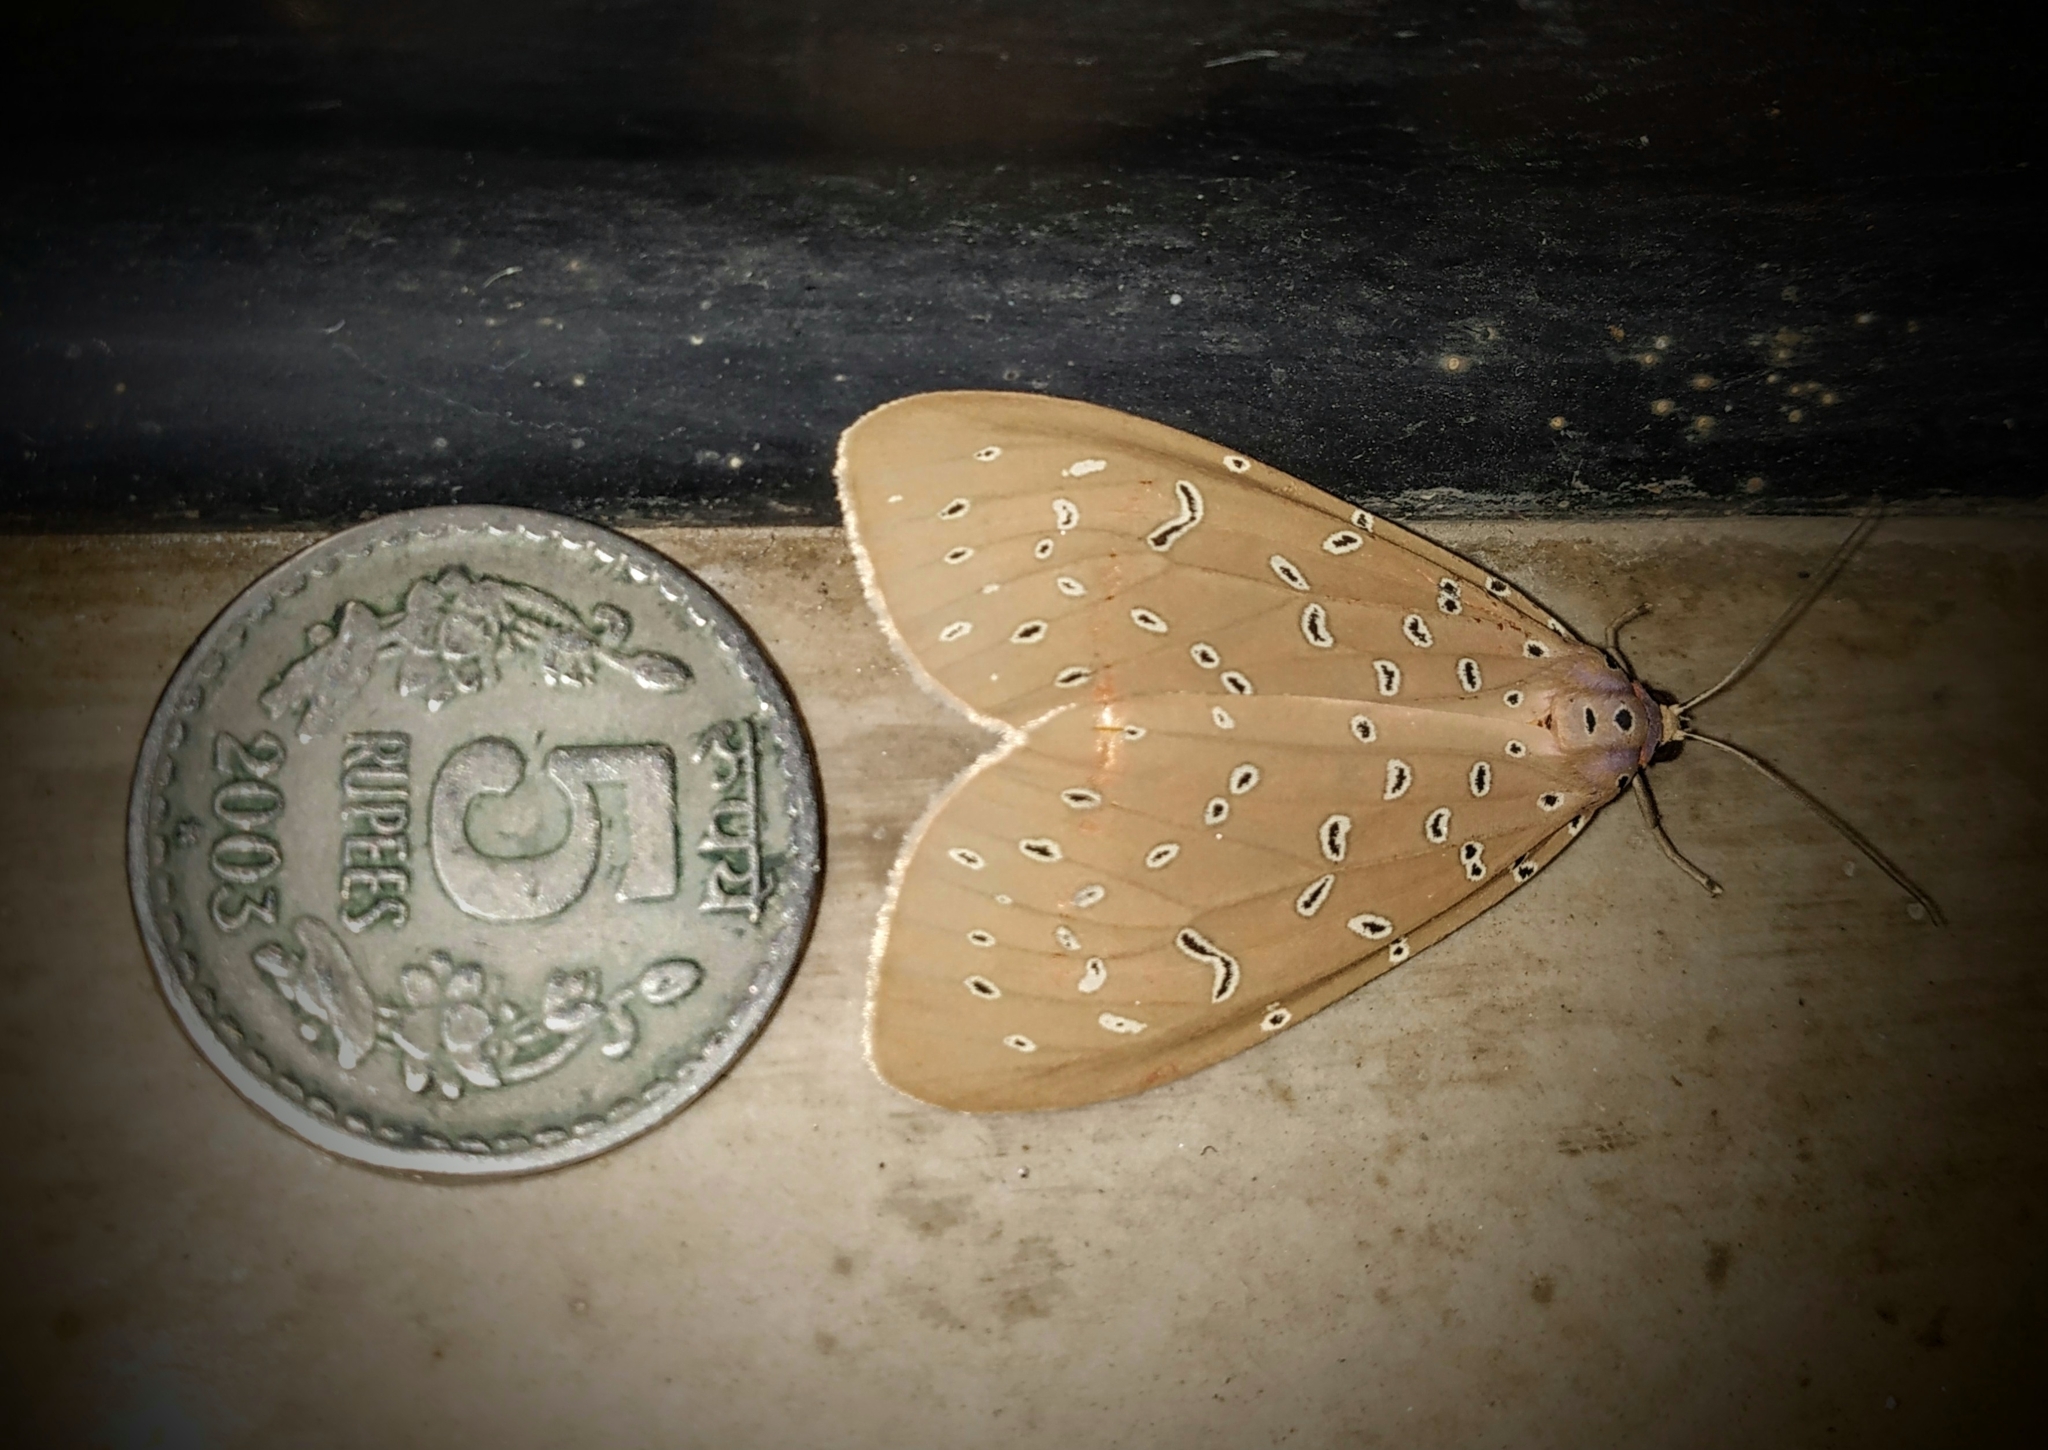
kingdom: Animalia
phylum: Arthropoda
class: Insecta
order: Lepidoptera
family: Erebidae
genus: Mangina
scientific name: Mangina argus
